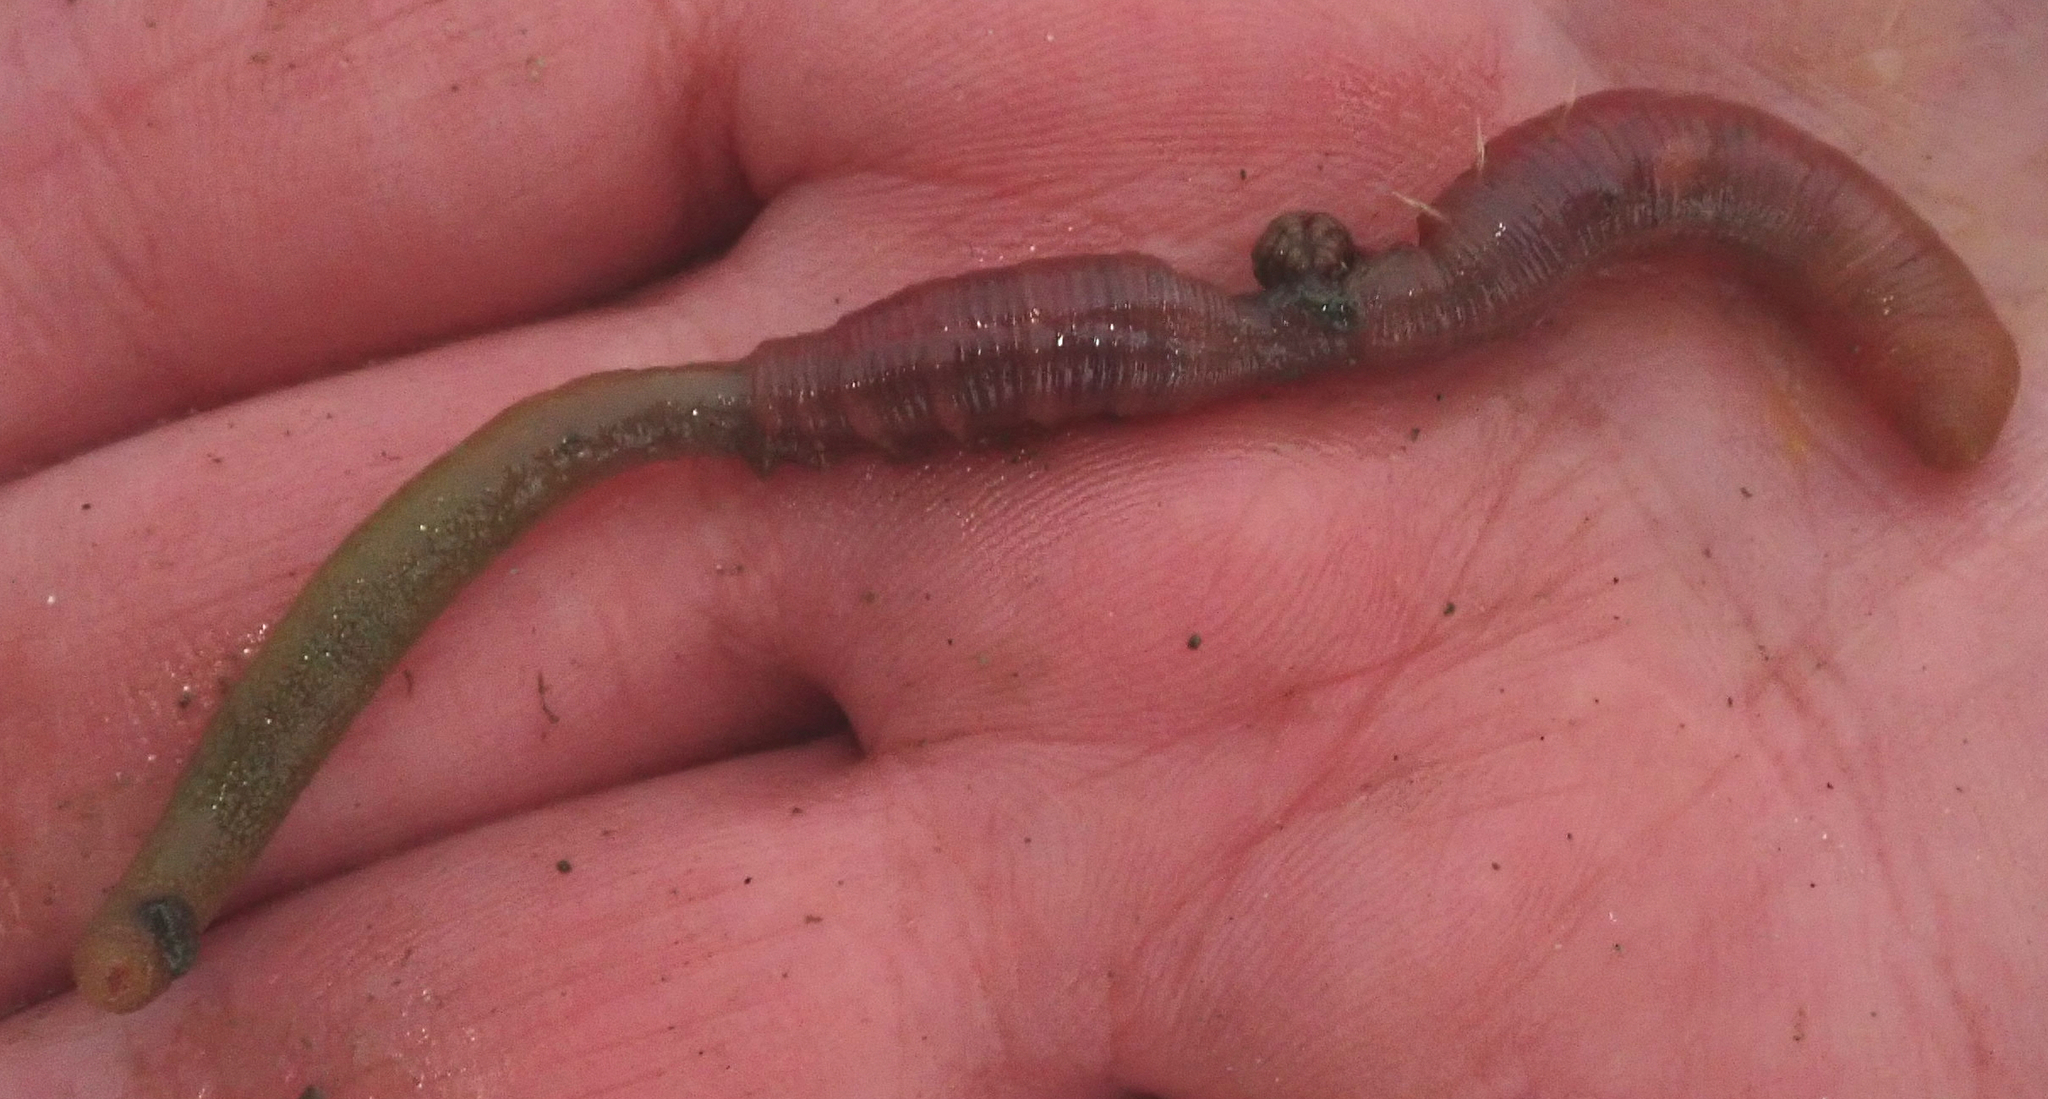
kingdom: Animalia
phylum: Annelida
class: Polychaeta
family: Arenicolidae
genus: Arenicola
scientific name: Arenicola marina
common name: Blow lugworm
